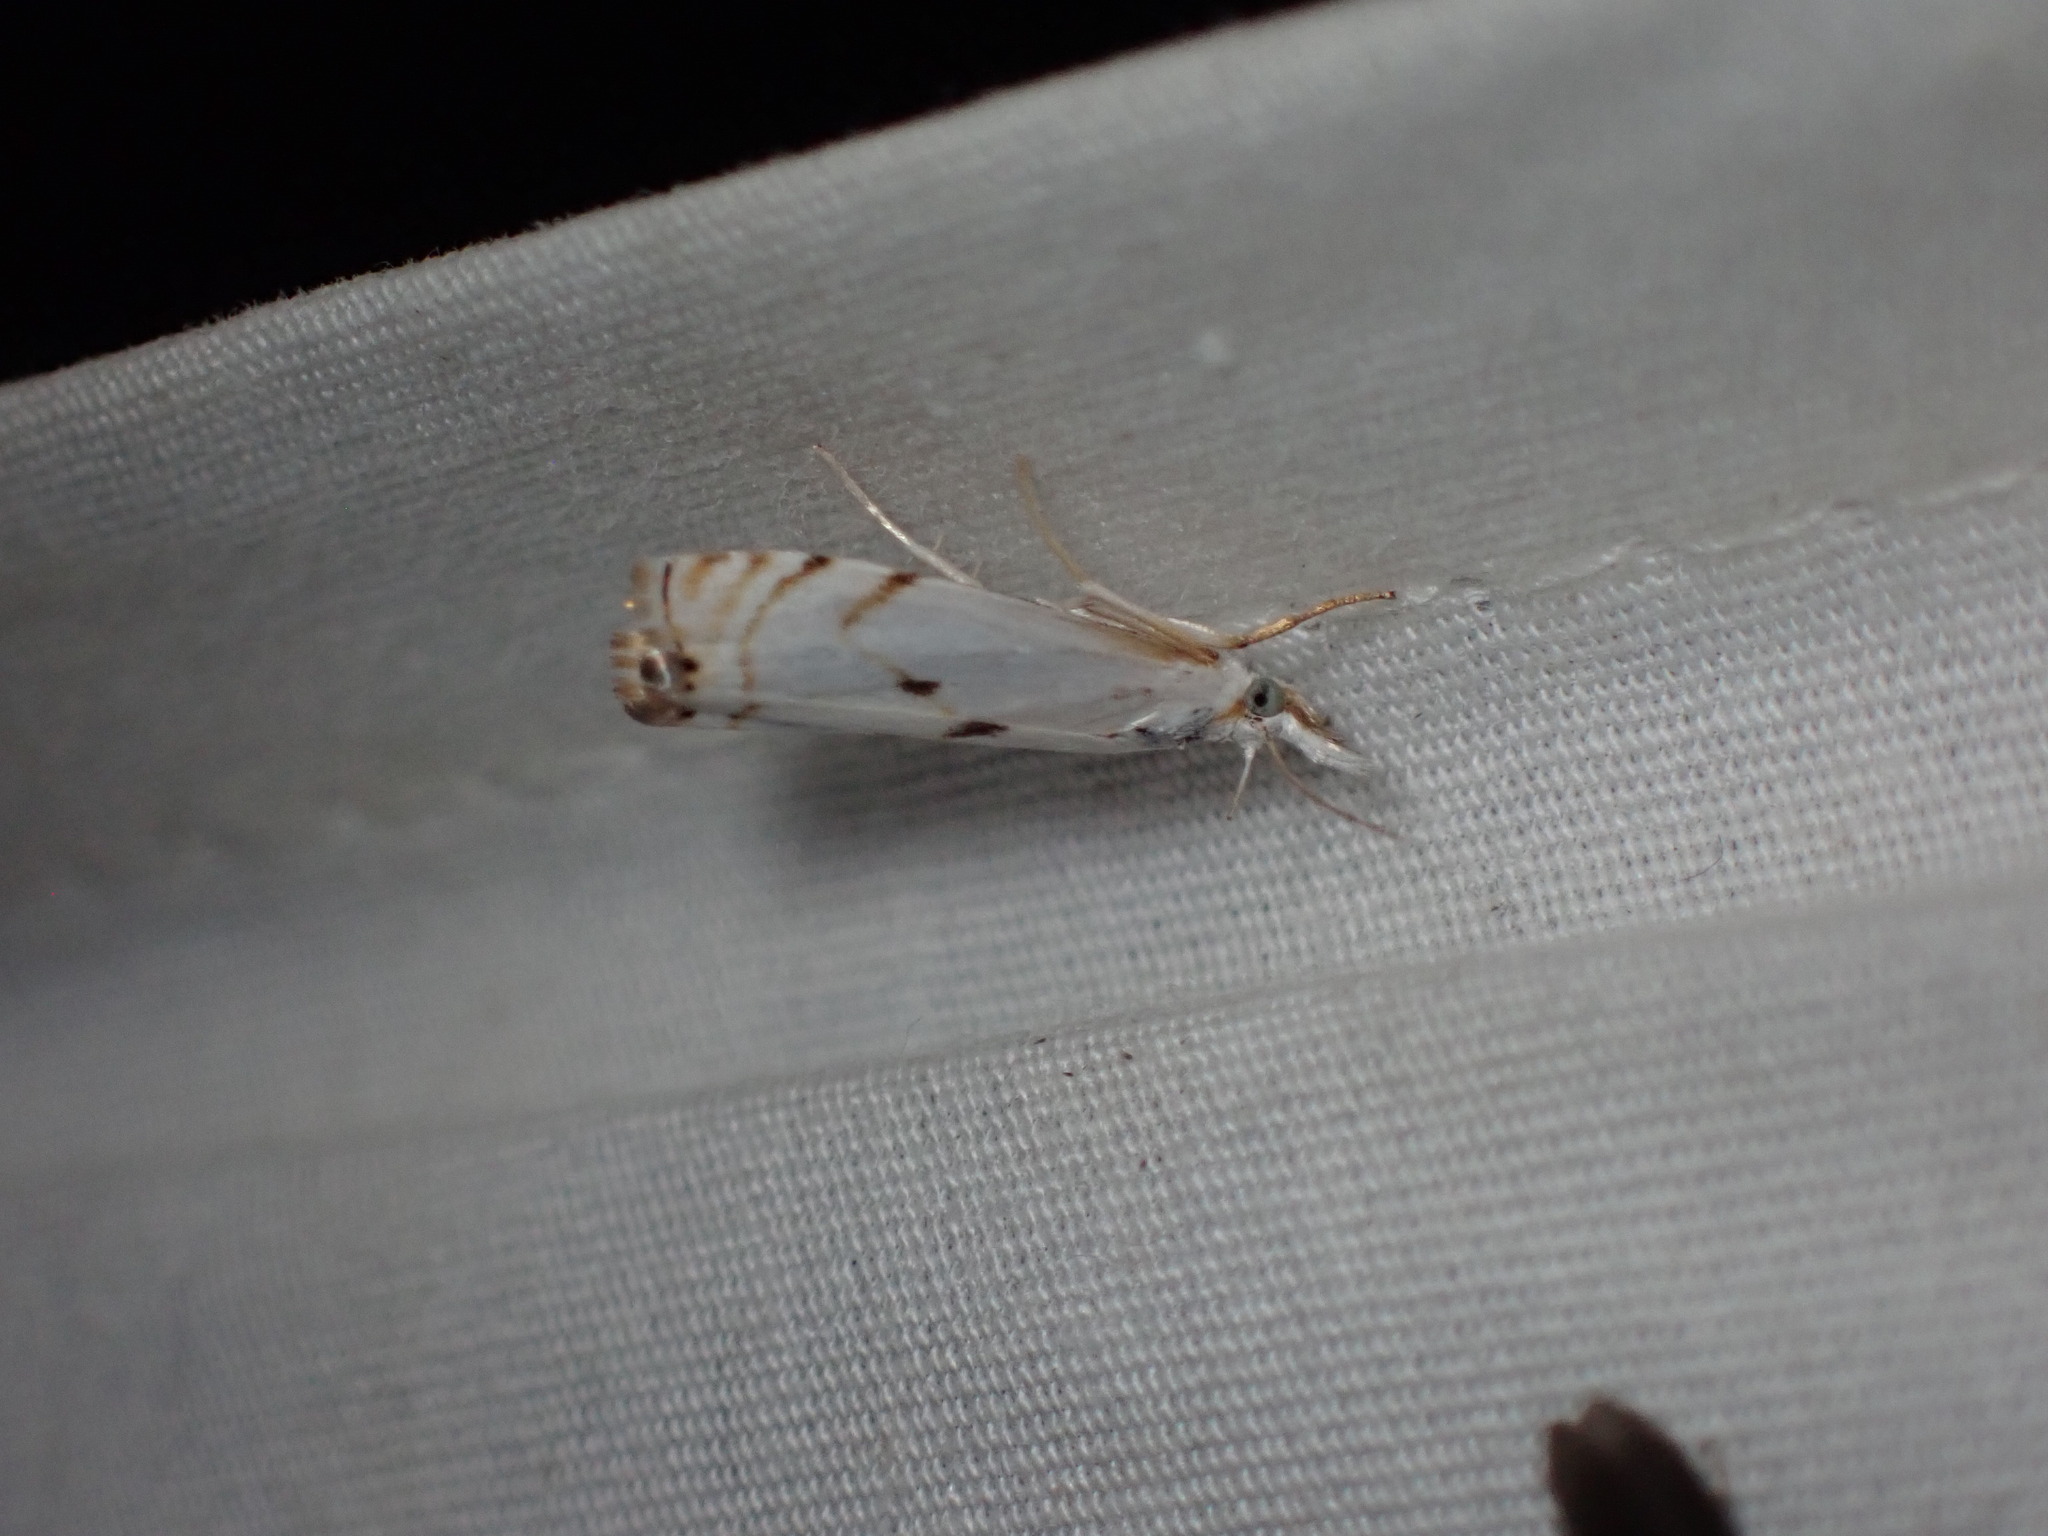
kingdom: Animalia
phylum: Arthropoda
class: Insecta
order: Lepidoptera
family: Crambidae
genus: Microcrambus
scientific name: Microcrambus biguttellus
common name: Gold-stripe grass-veneer moth
